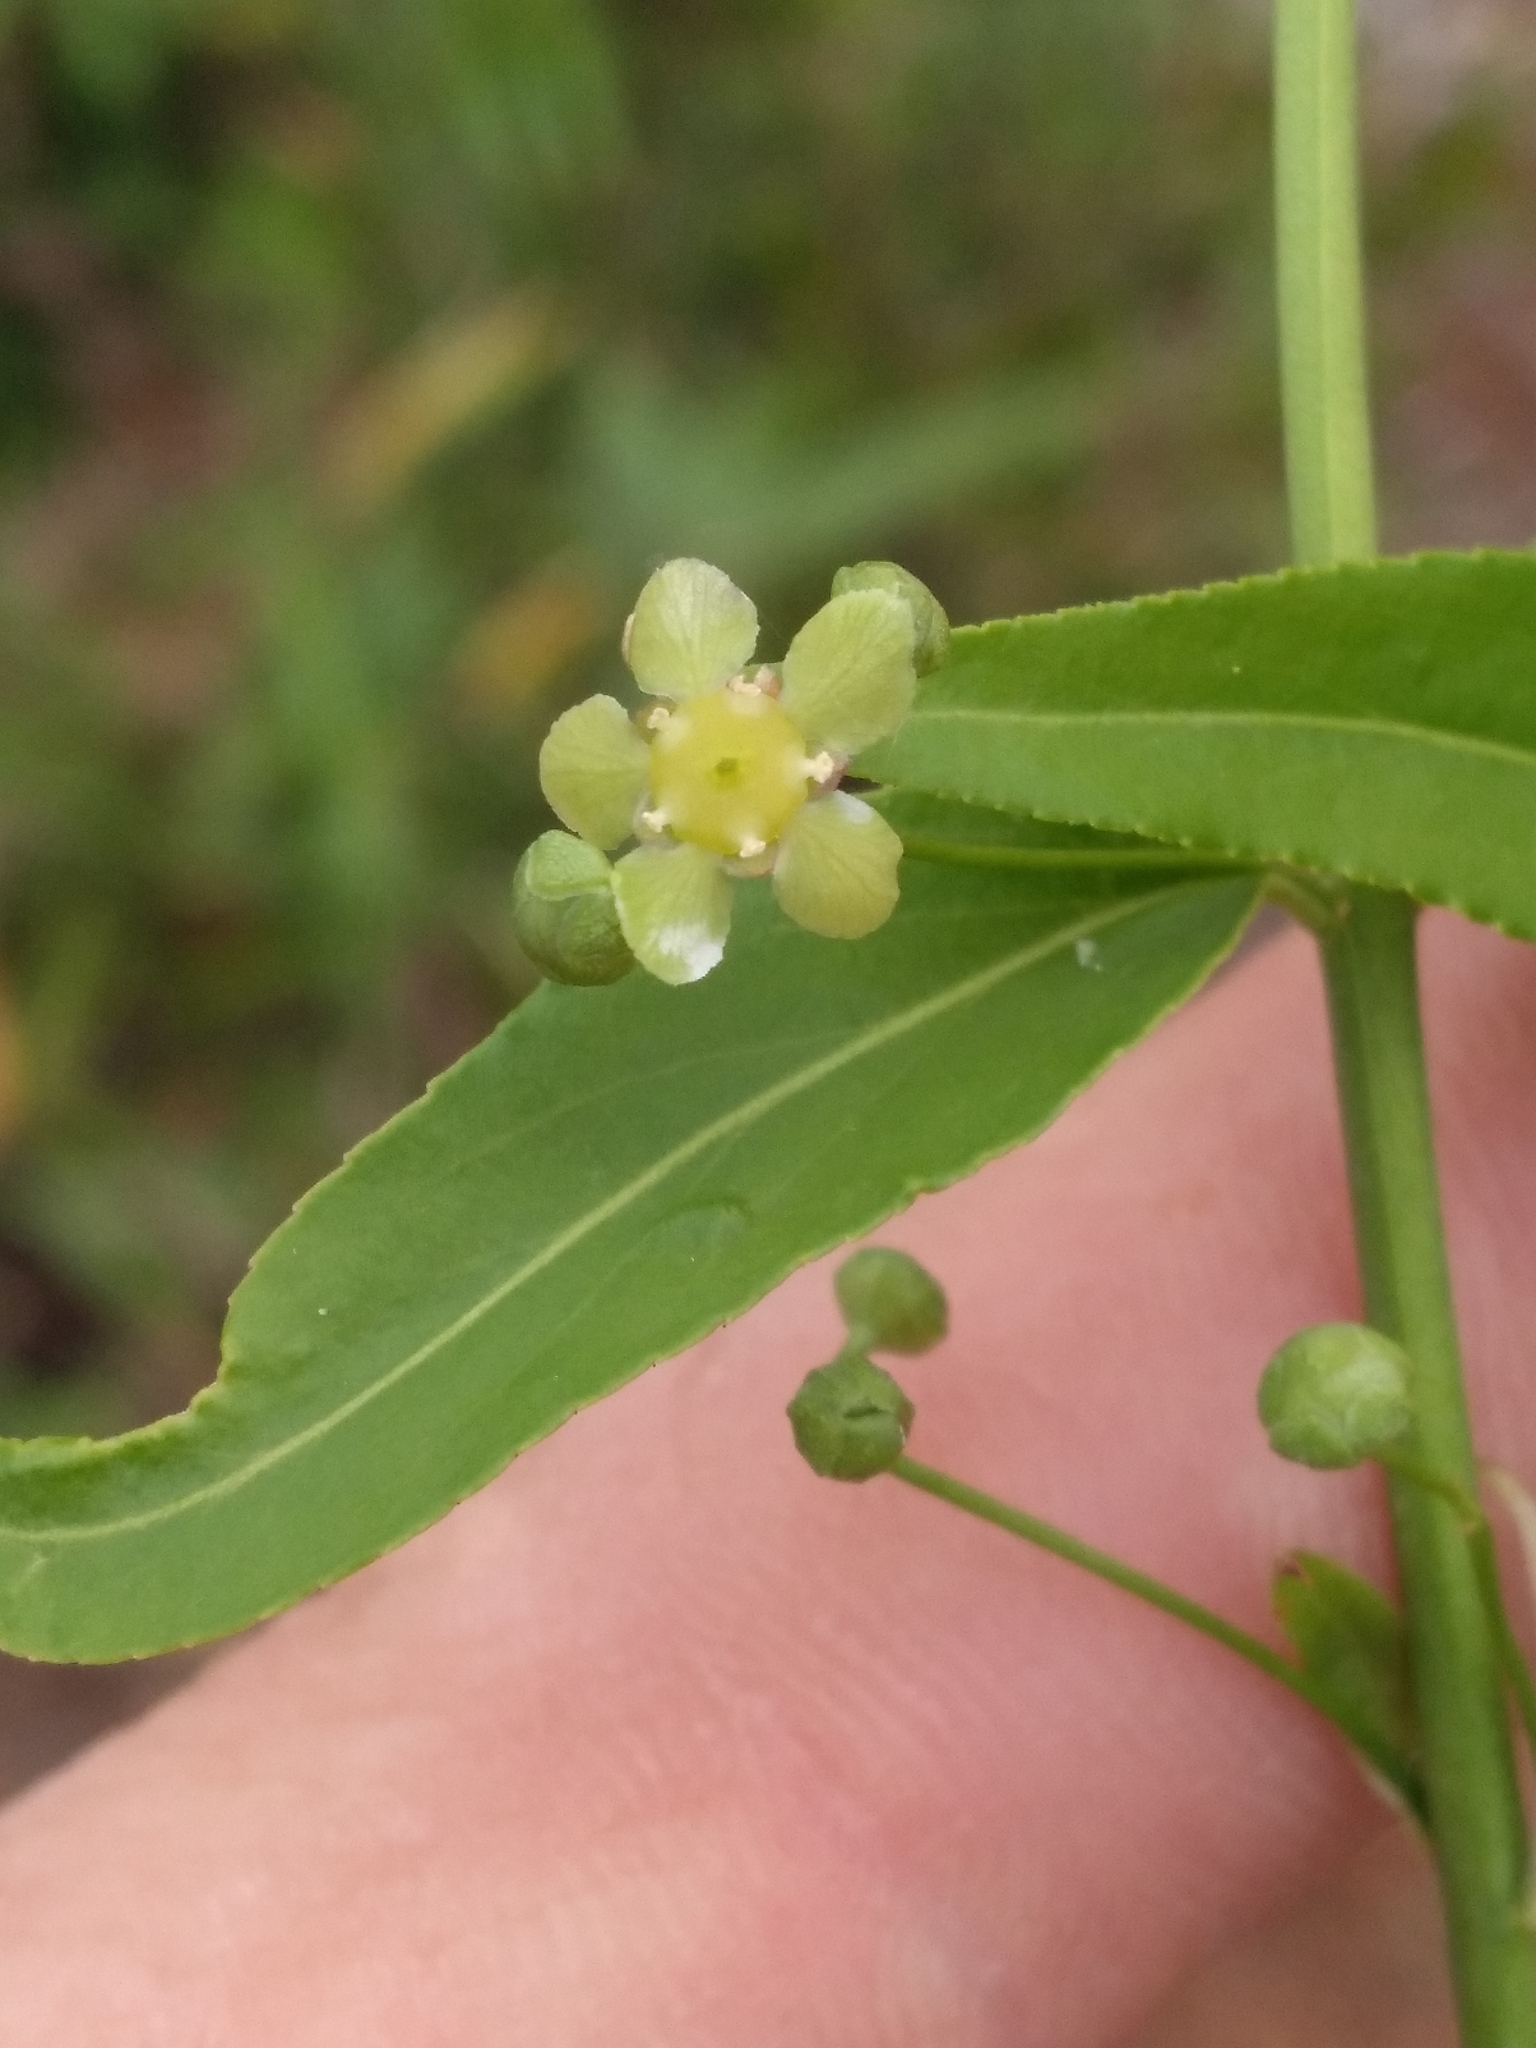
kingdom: Plantae
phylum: Tracheophyta
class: Magnoliopsida
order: Celastrales
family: Celastraceae
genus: Euonymus
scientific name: Euonymus americanus
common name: Bursting-heart
